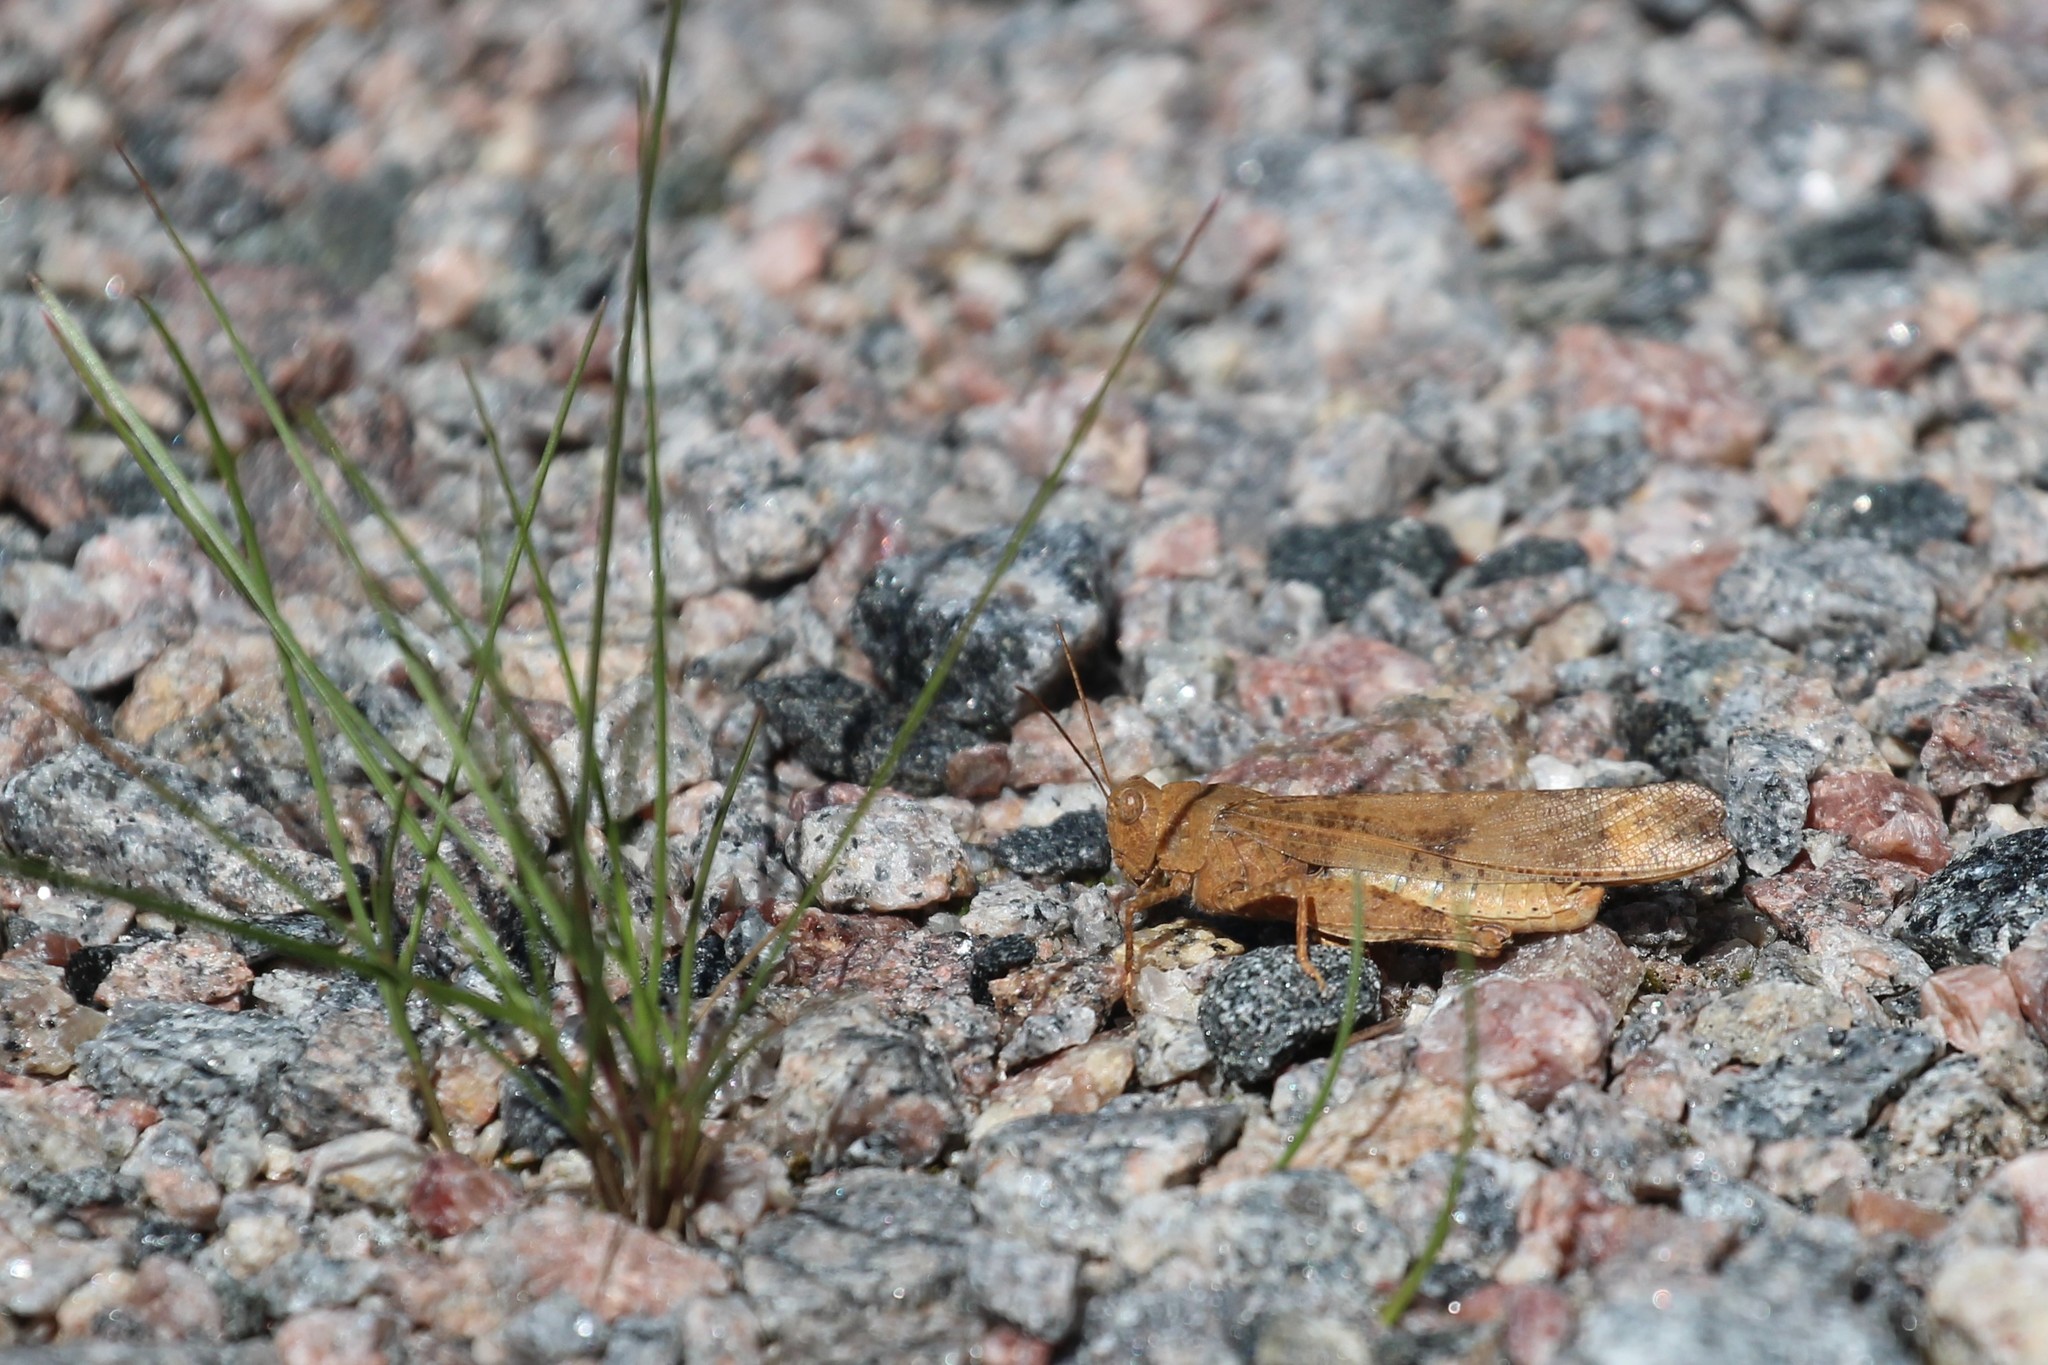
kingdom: Animalia
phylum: Arthropoda
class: Insecta
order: Orthoptera
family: Acrididae
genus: Dissosteira
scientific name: Dissosteira carolina
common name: Carolina grasshopper
